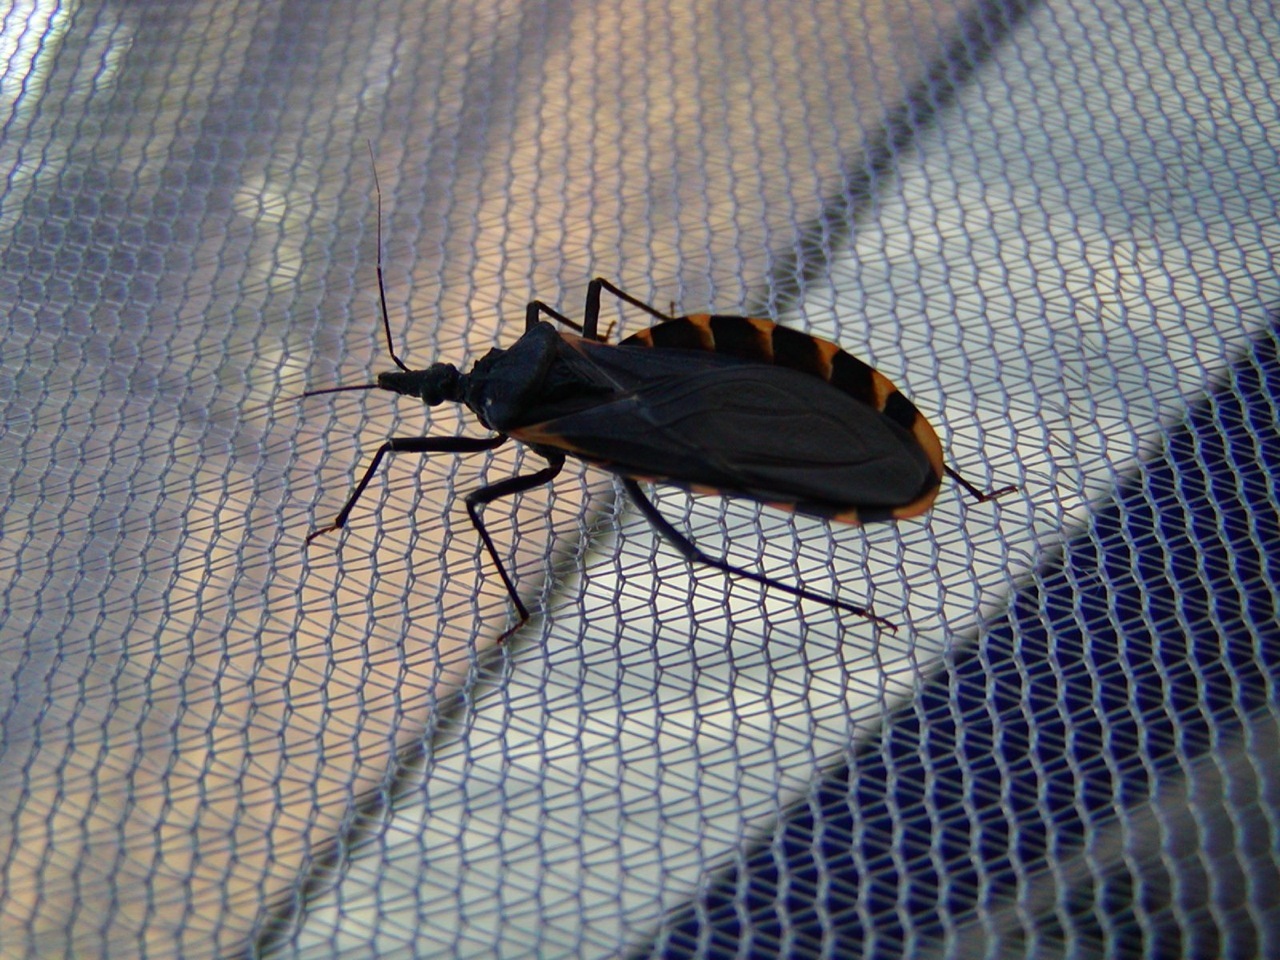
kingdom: Animalia
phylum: Arthropoda
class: Insecta
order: Hemiptera
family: Reduviidae
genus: Triatoma
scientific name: Triatoma gerstaeckeri
